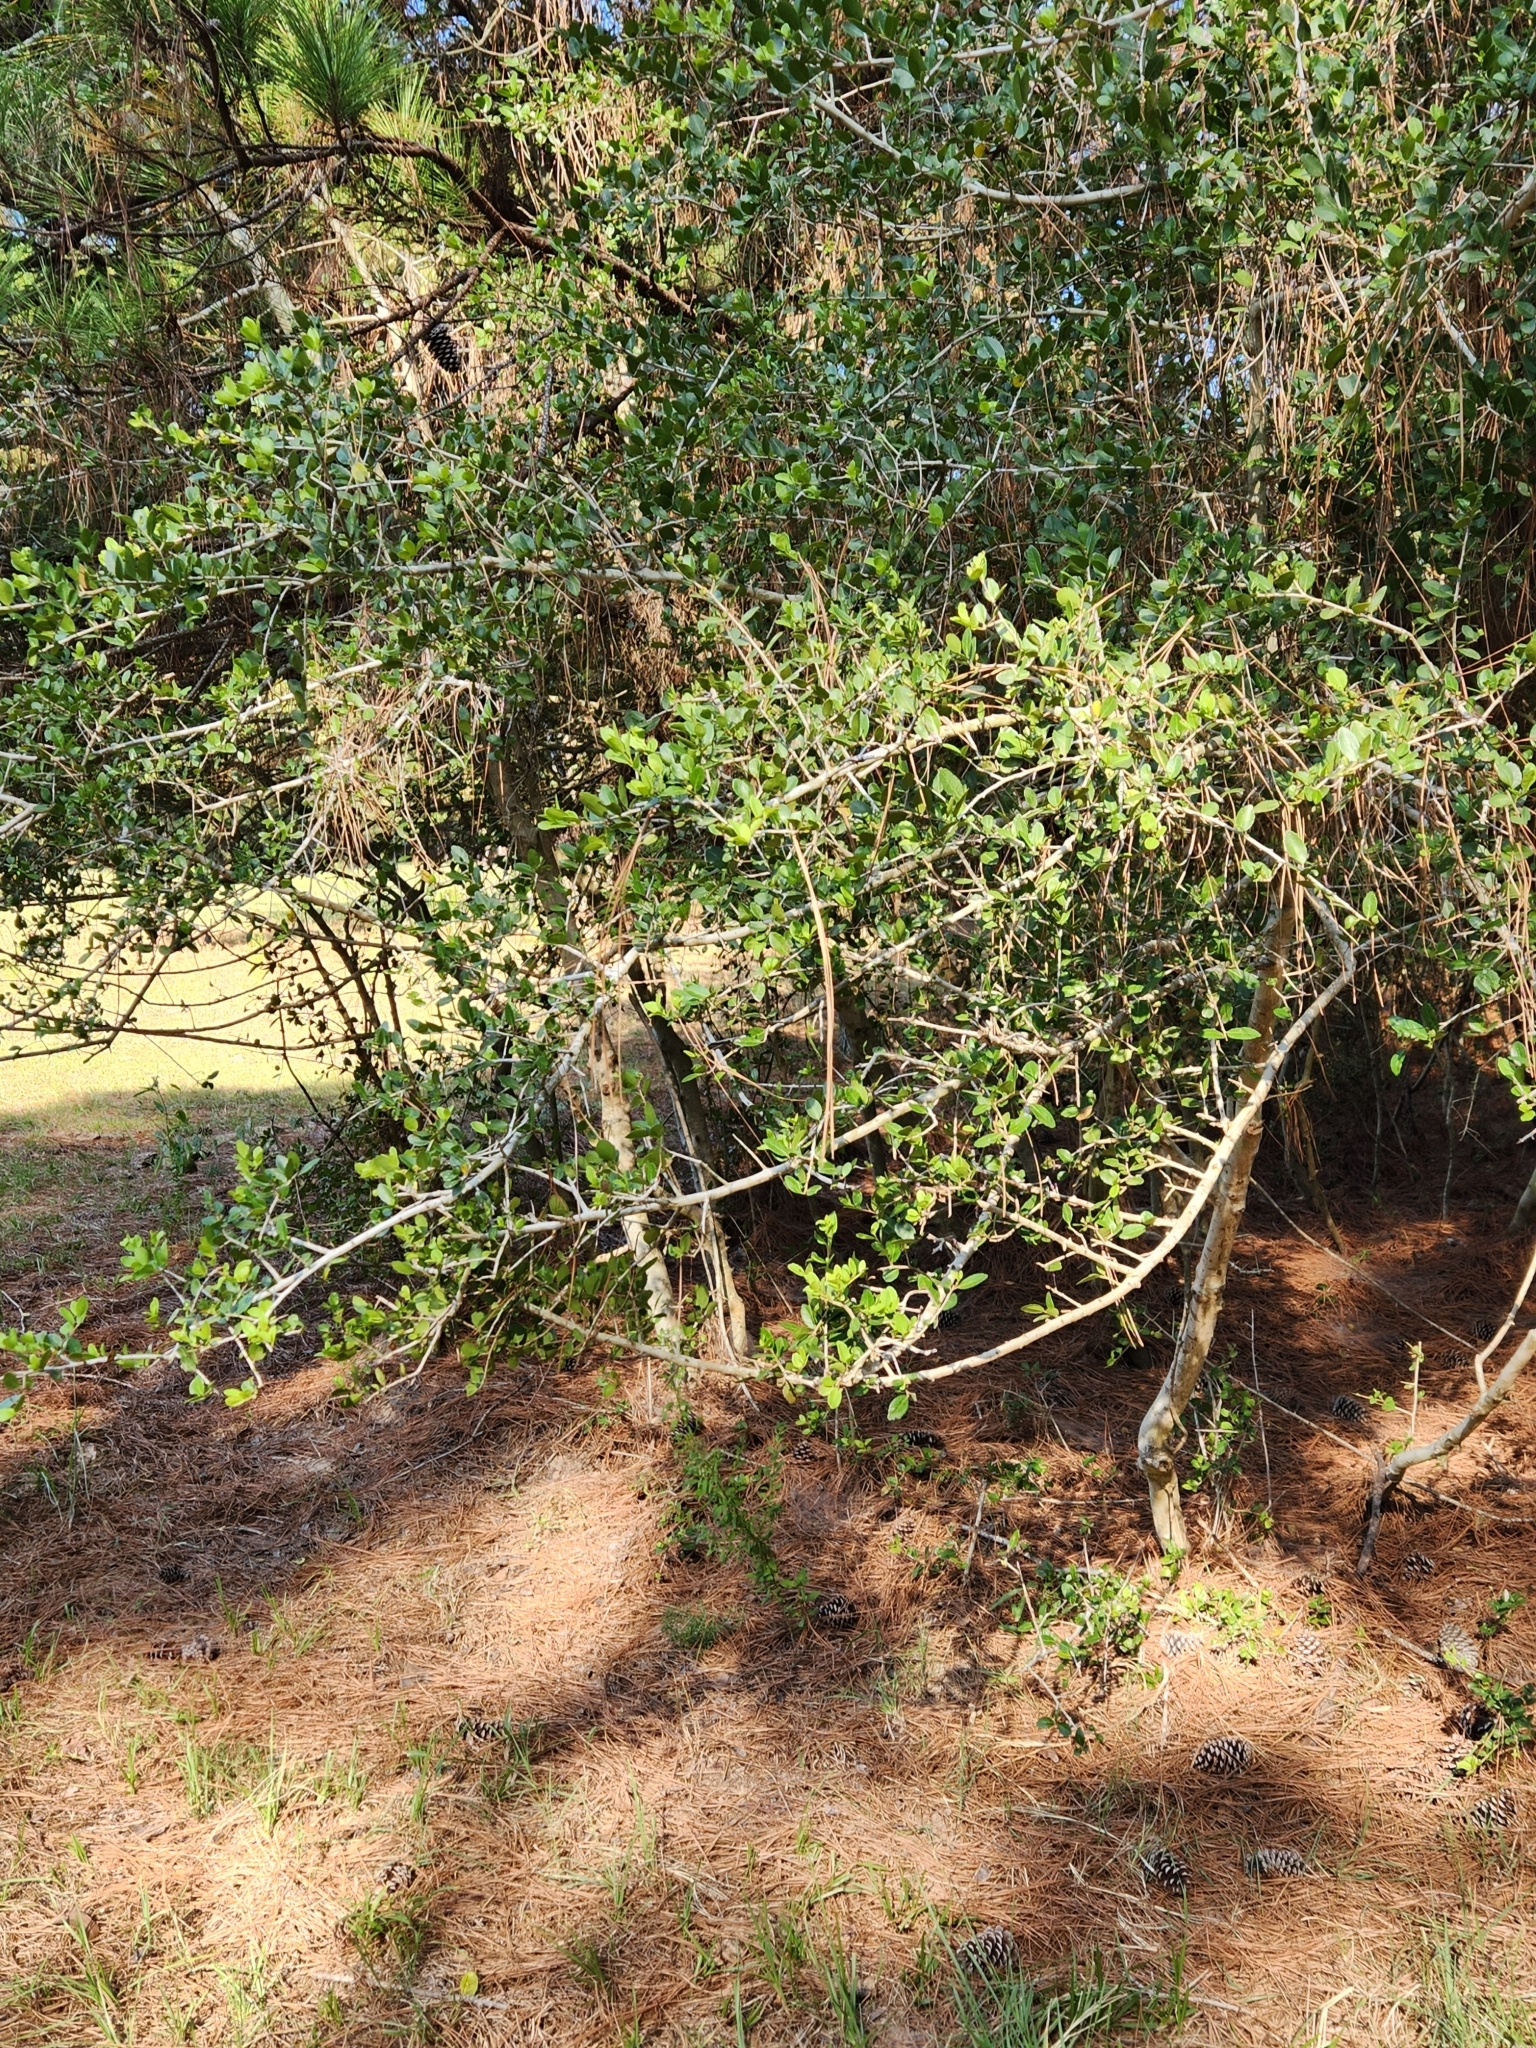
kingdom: Plantae
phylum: Tracheophyta
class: Magnoliopsida
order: Aquifoliales
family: Aquifoliaceae
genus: Ilex
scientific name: Ilex vomitoria
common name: Yaupon holly
